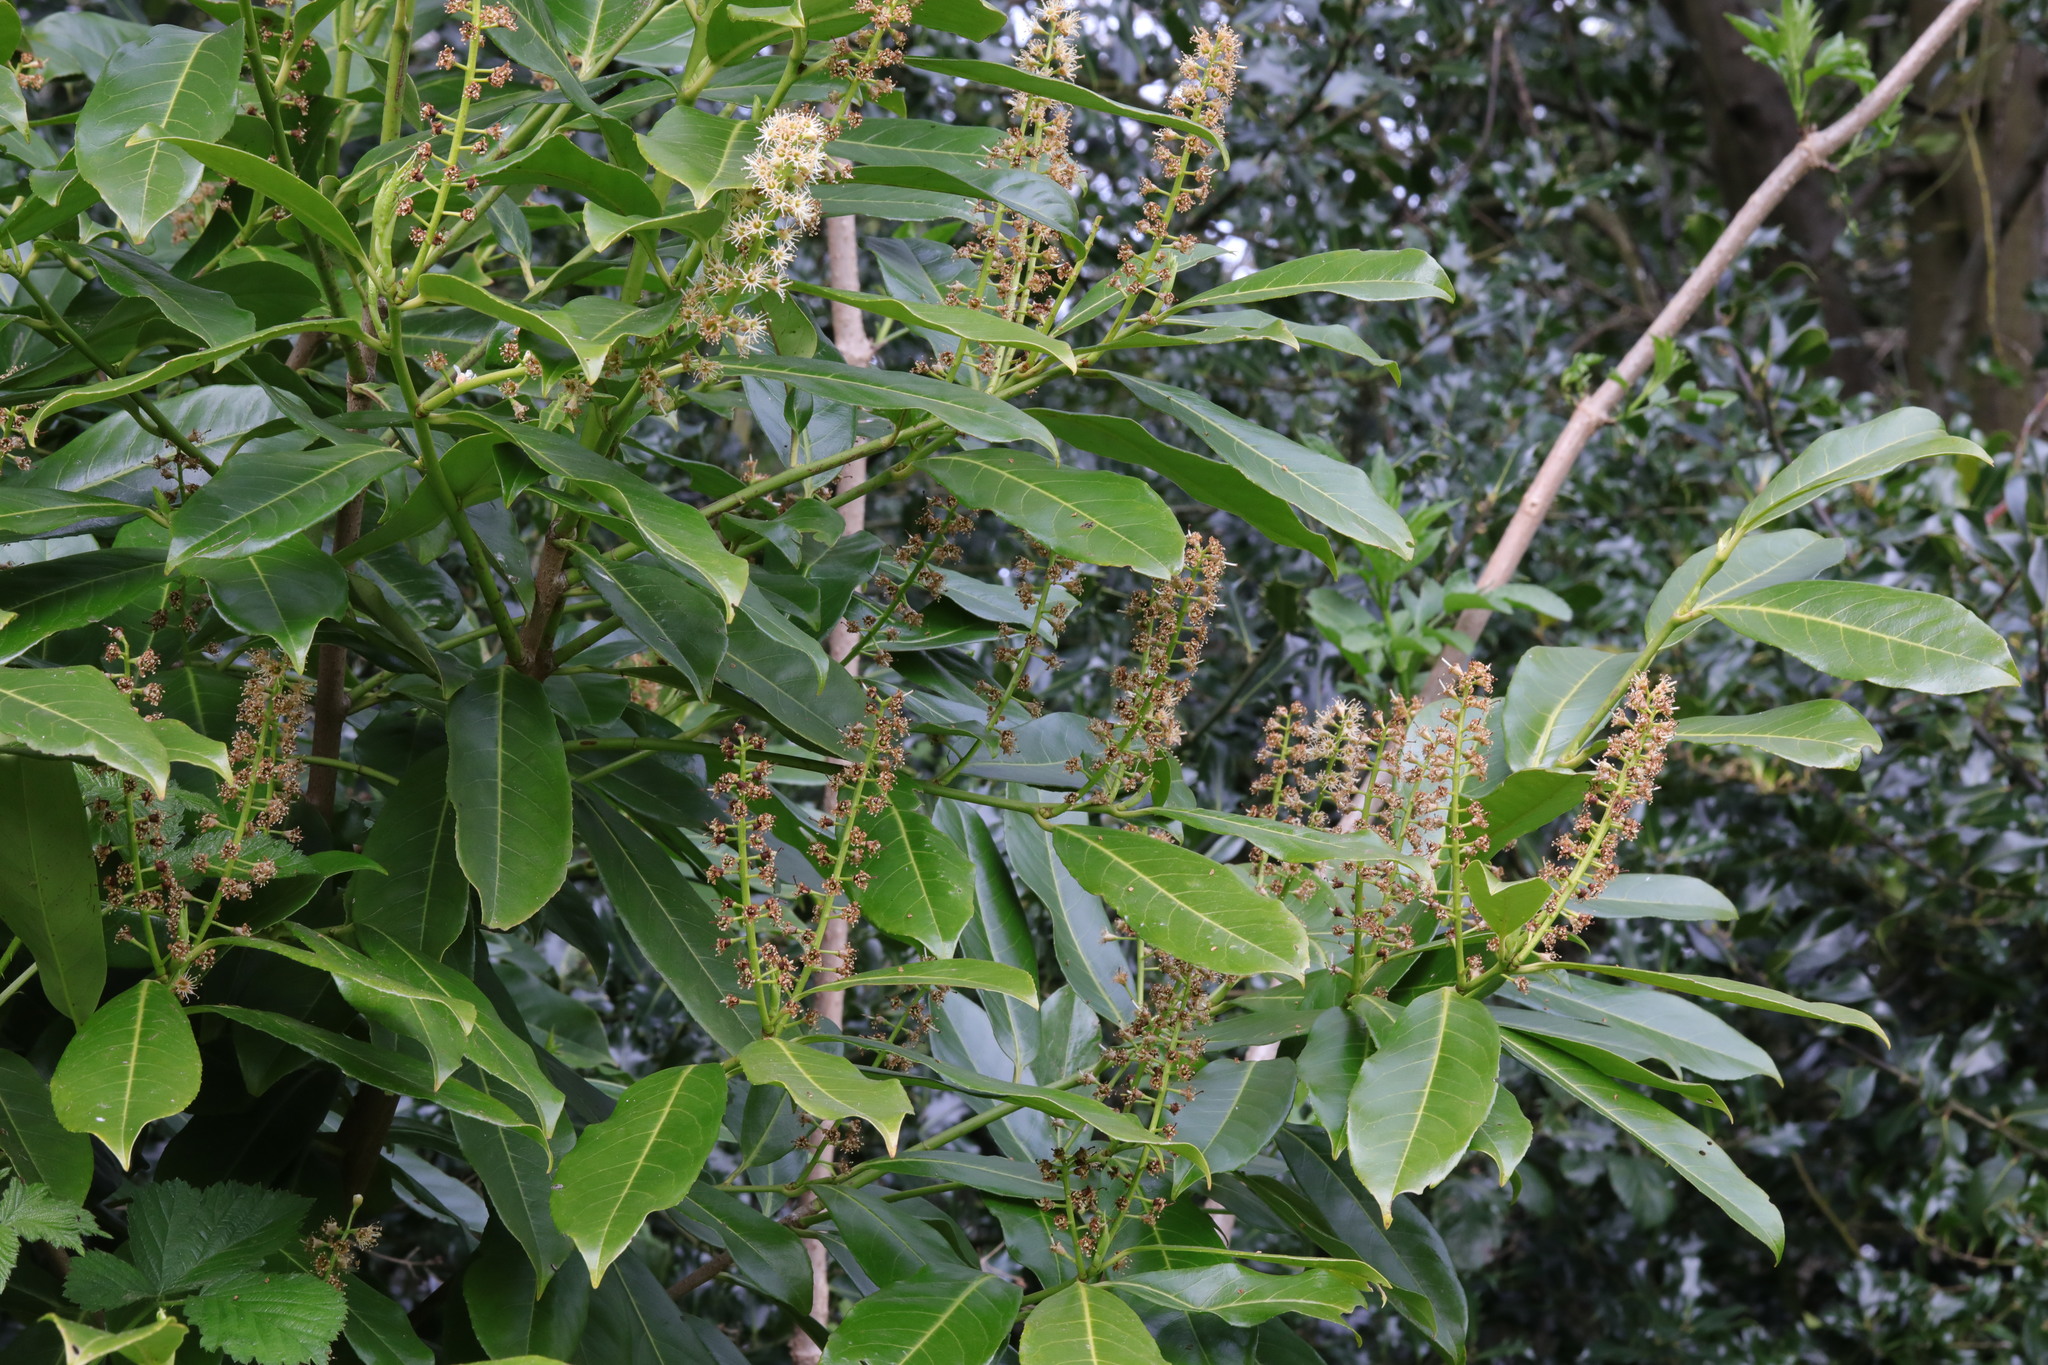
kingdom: Plantae
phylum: Tracheophyta
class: Magnoliopsida
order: Rosales
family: Rosaceae
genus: Prunus
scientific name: Prunus laurocerasus
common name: Cherry laurel
